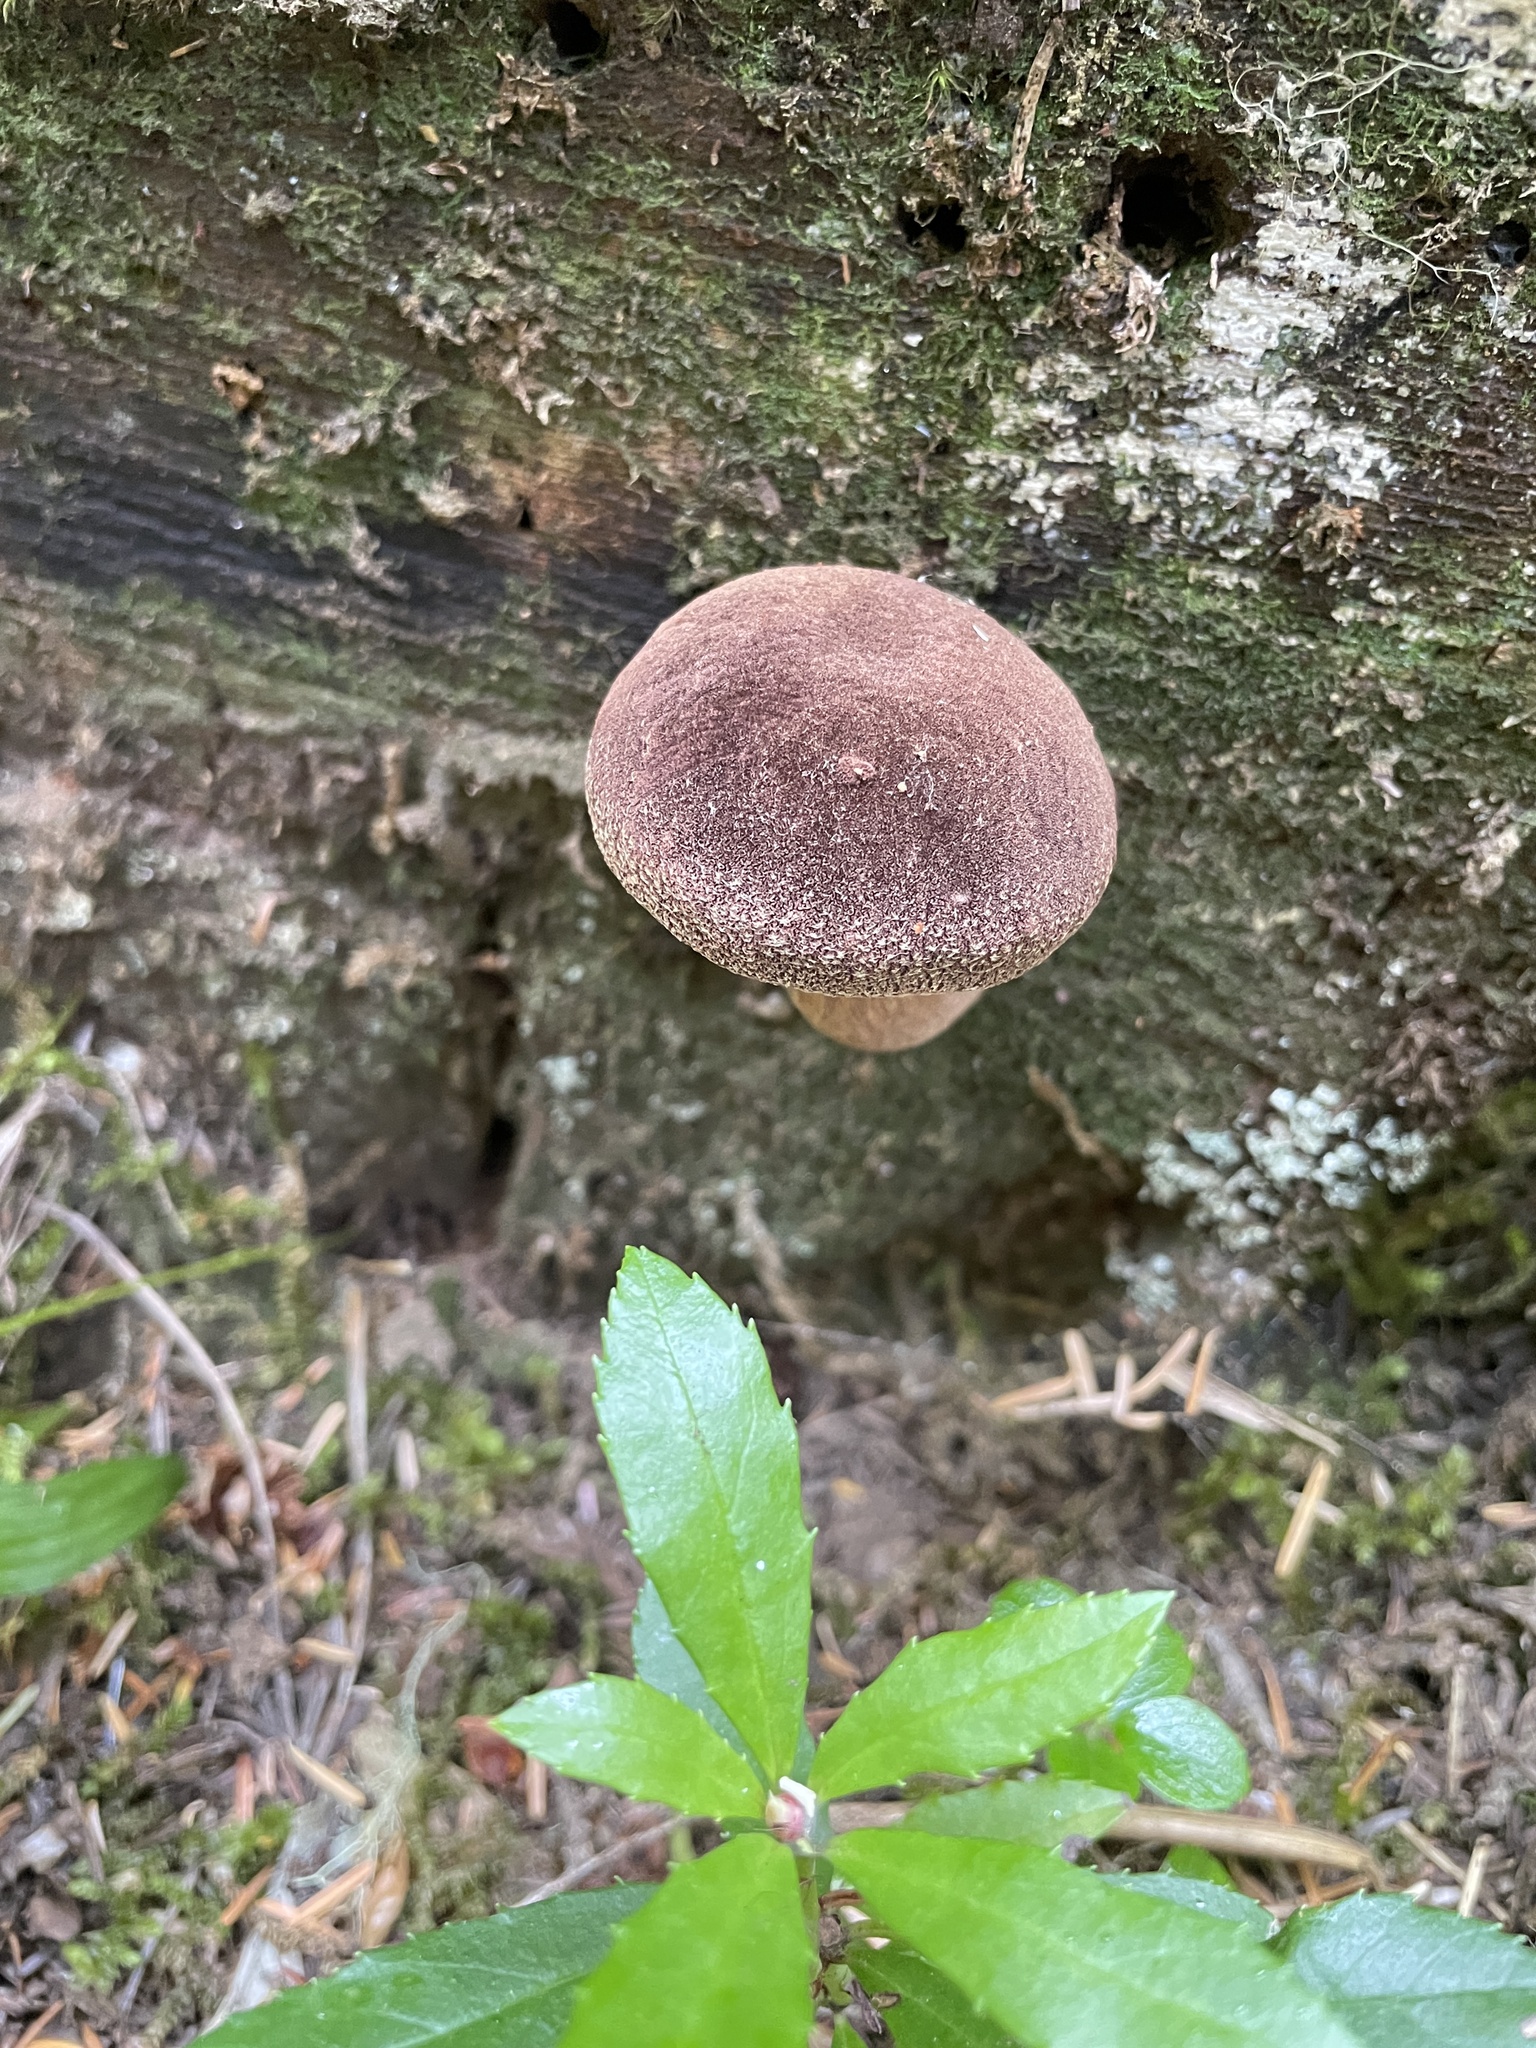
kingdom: Fungi
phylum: Basidiomycota
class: Agaricomycetes
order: Boletales
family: Boletaceae
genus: Aureoboletus
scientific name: Aureoboletus mirabilis
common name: Admirable bolete
